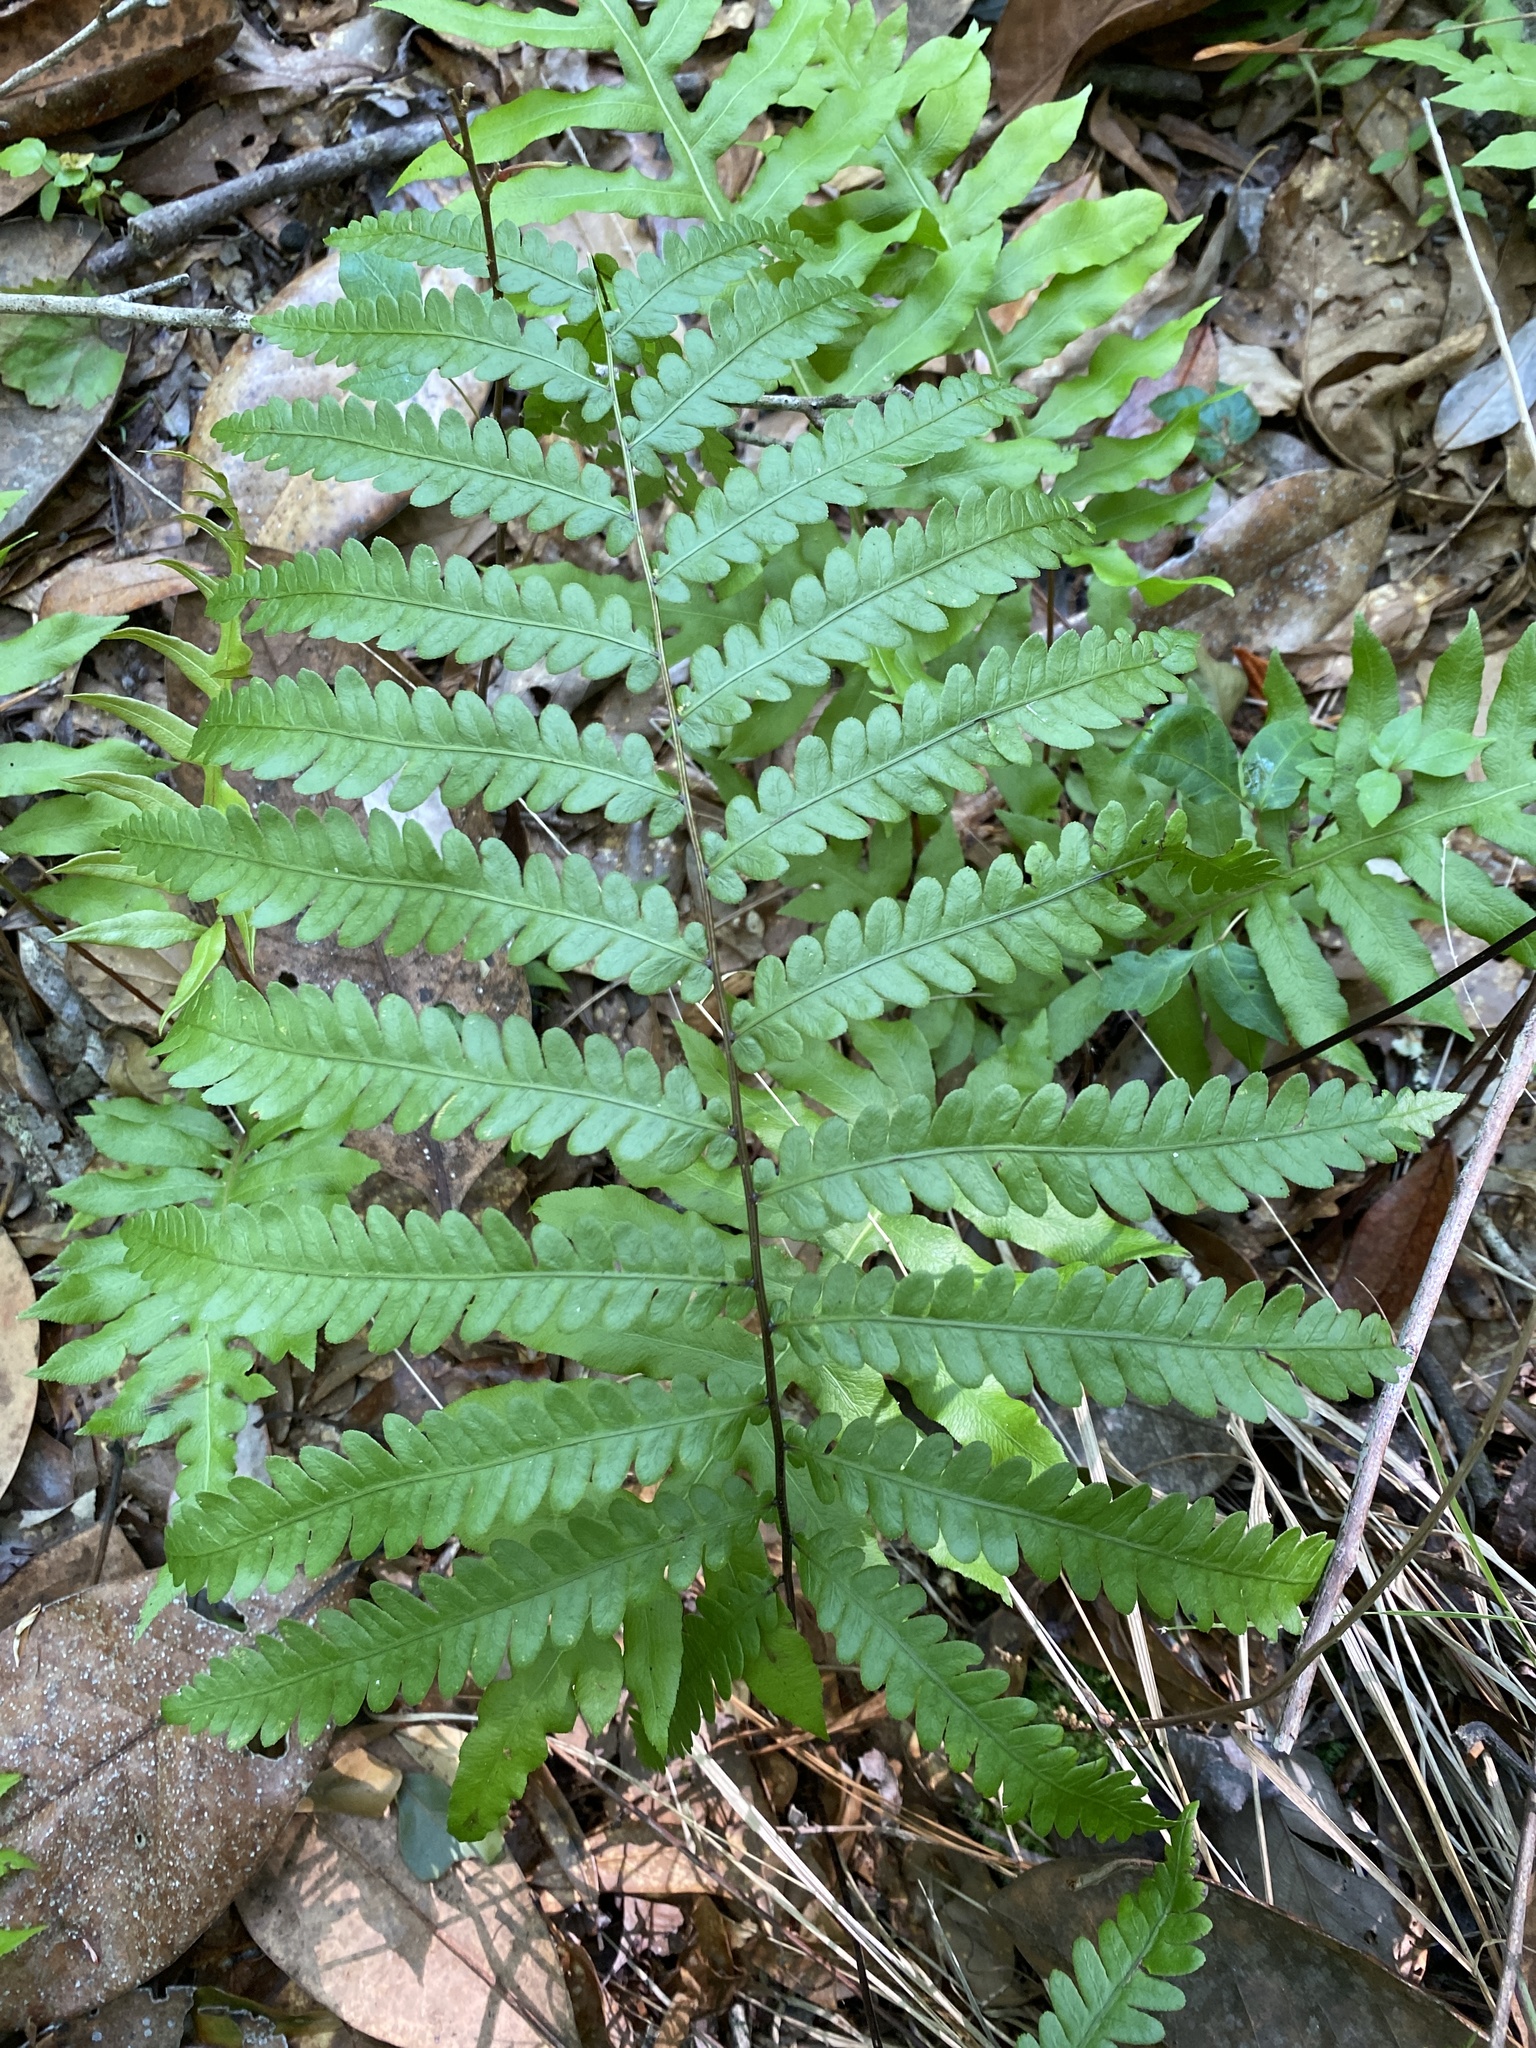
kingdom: Plantae
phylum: Tracheophyta
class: Polypodiopsida
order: Polypodiales
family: Blechnaceae
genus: Anchistea
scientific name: Anchistea virginica
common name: Virginia chain fern
